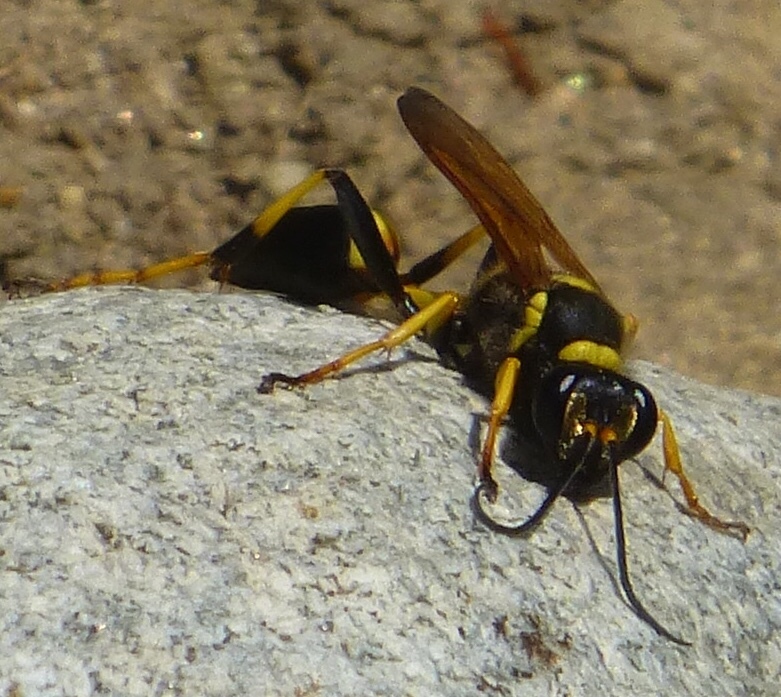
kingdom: Animalia
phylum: Arthropoda
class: Insecta
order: Hymenoptera
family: Sphecidae
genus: Sceliphron
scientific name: Sceliphron caementarium
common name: Mud dauber
